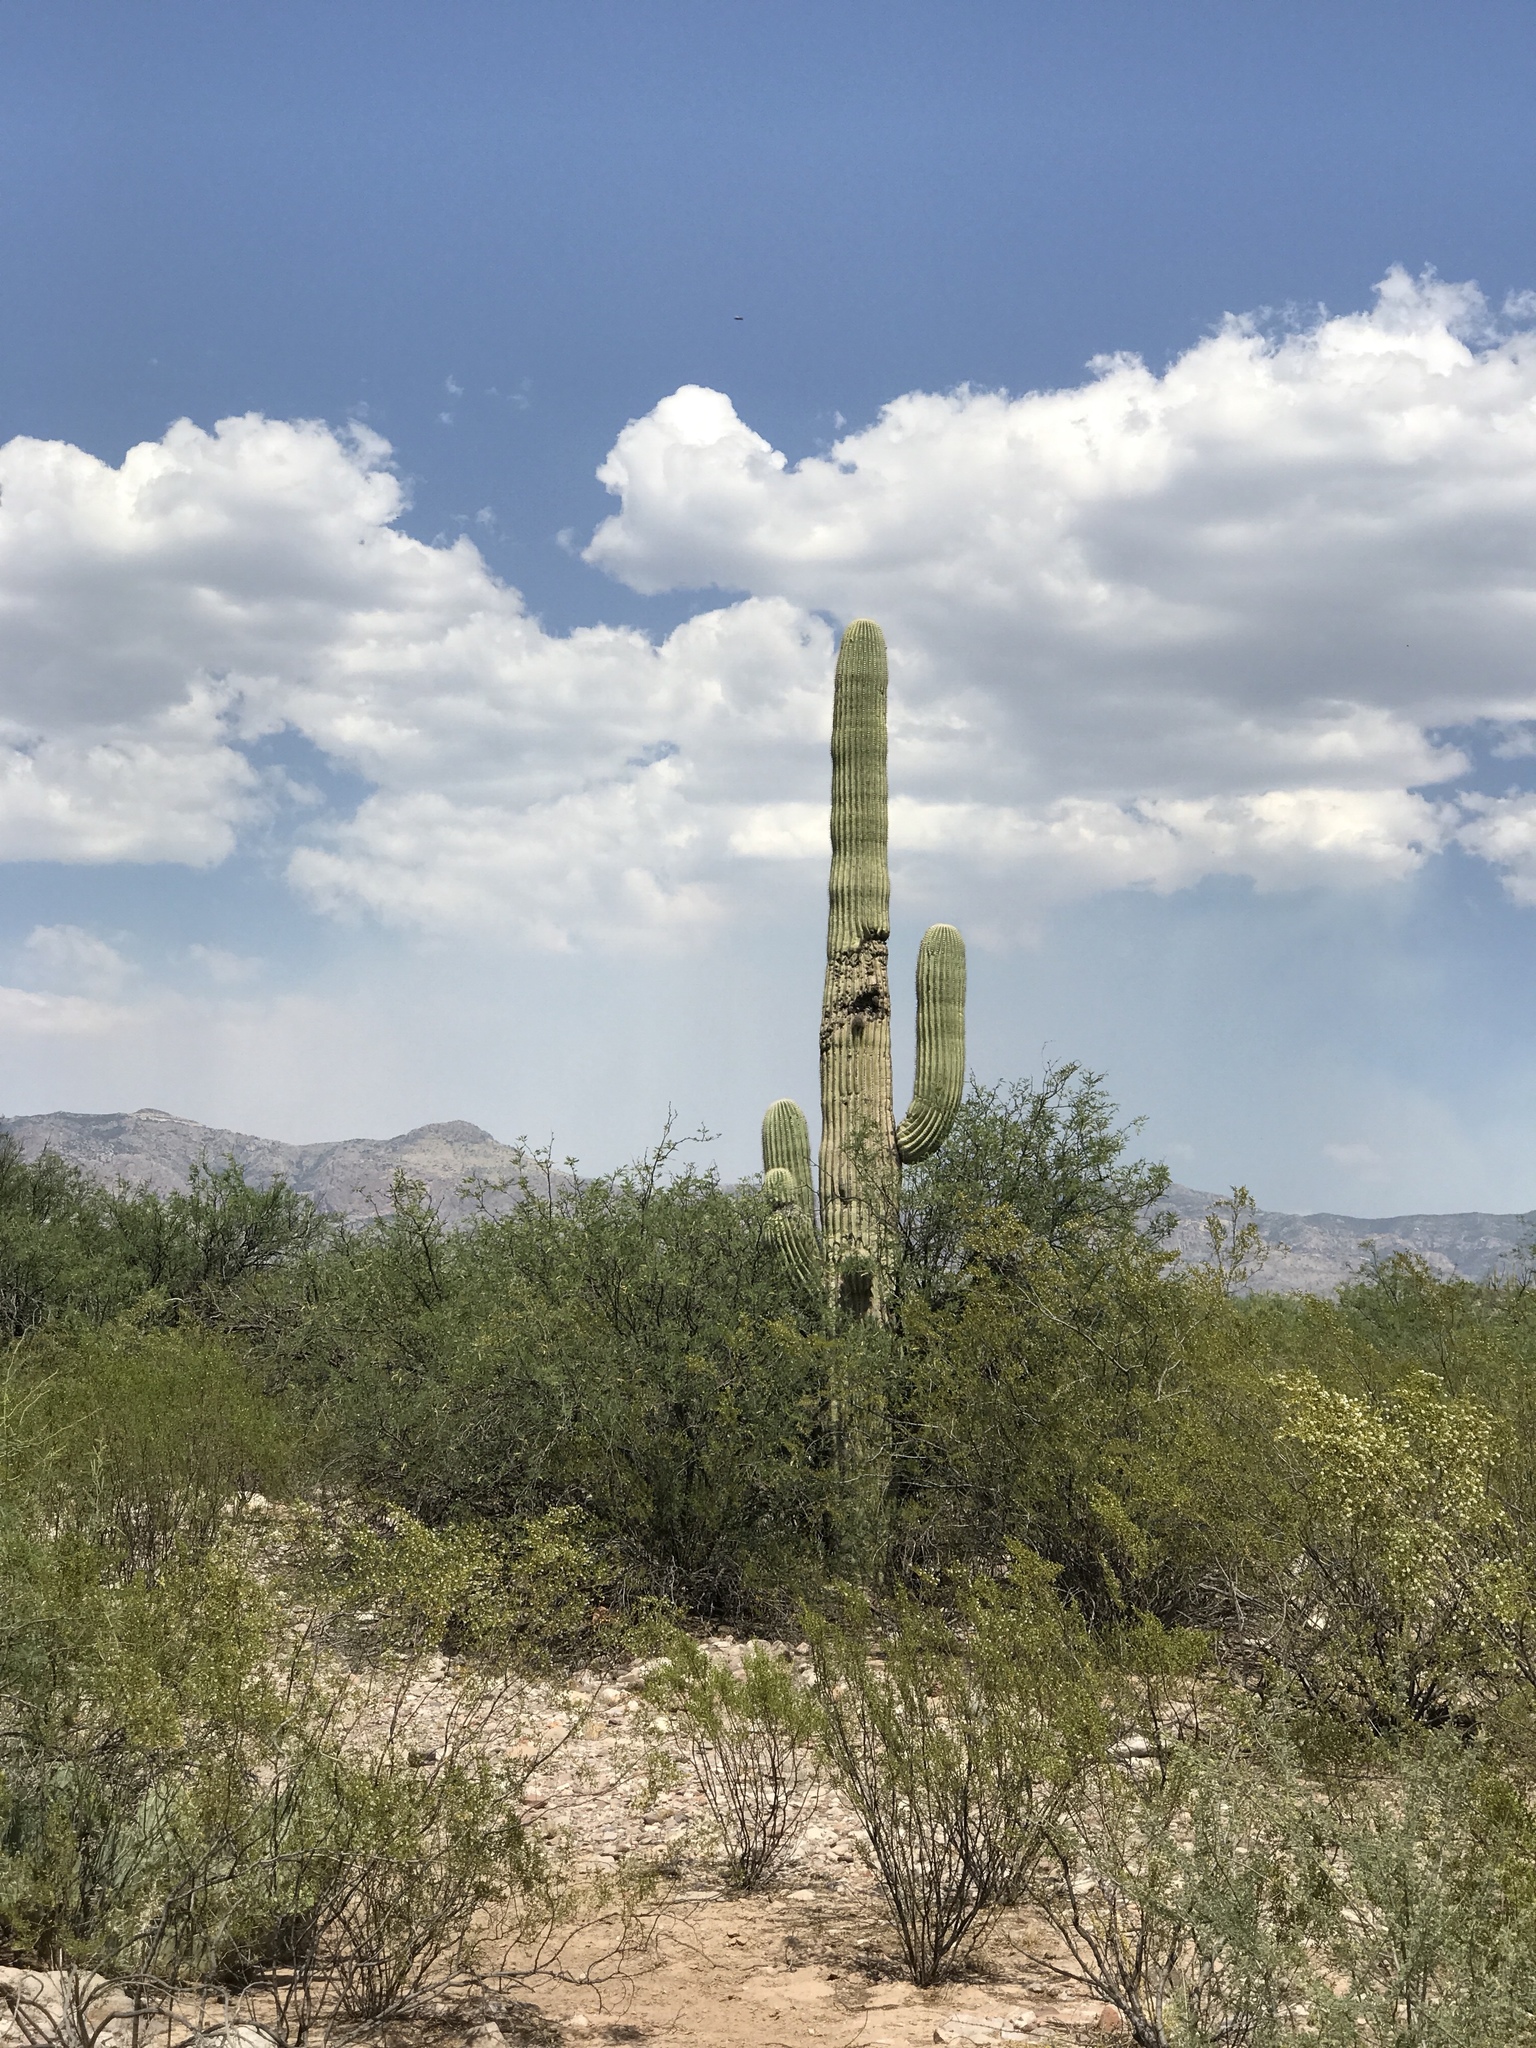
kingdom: Plantae
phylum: Tracheophyta
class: Magnoliopsida
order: Caryophyllales
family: Cactaceae
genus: Carnegiea
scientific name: Carnegiea gigantea
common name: Saguaro
